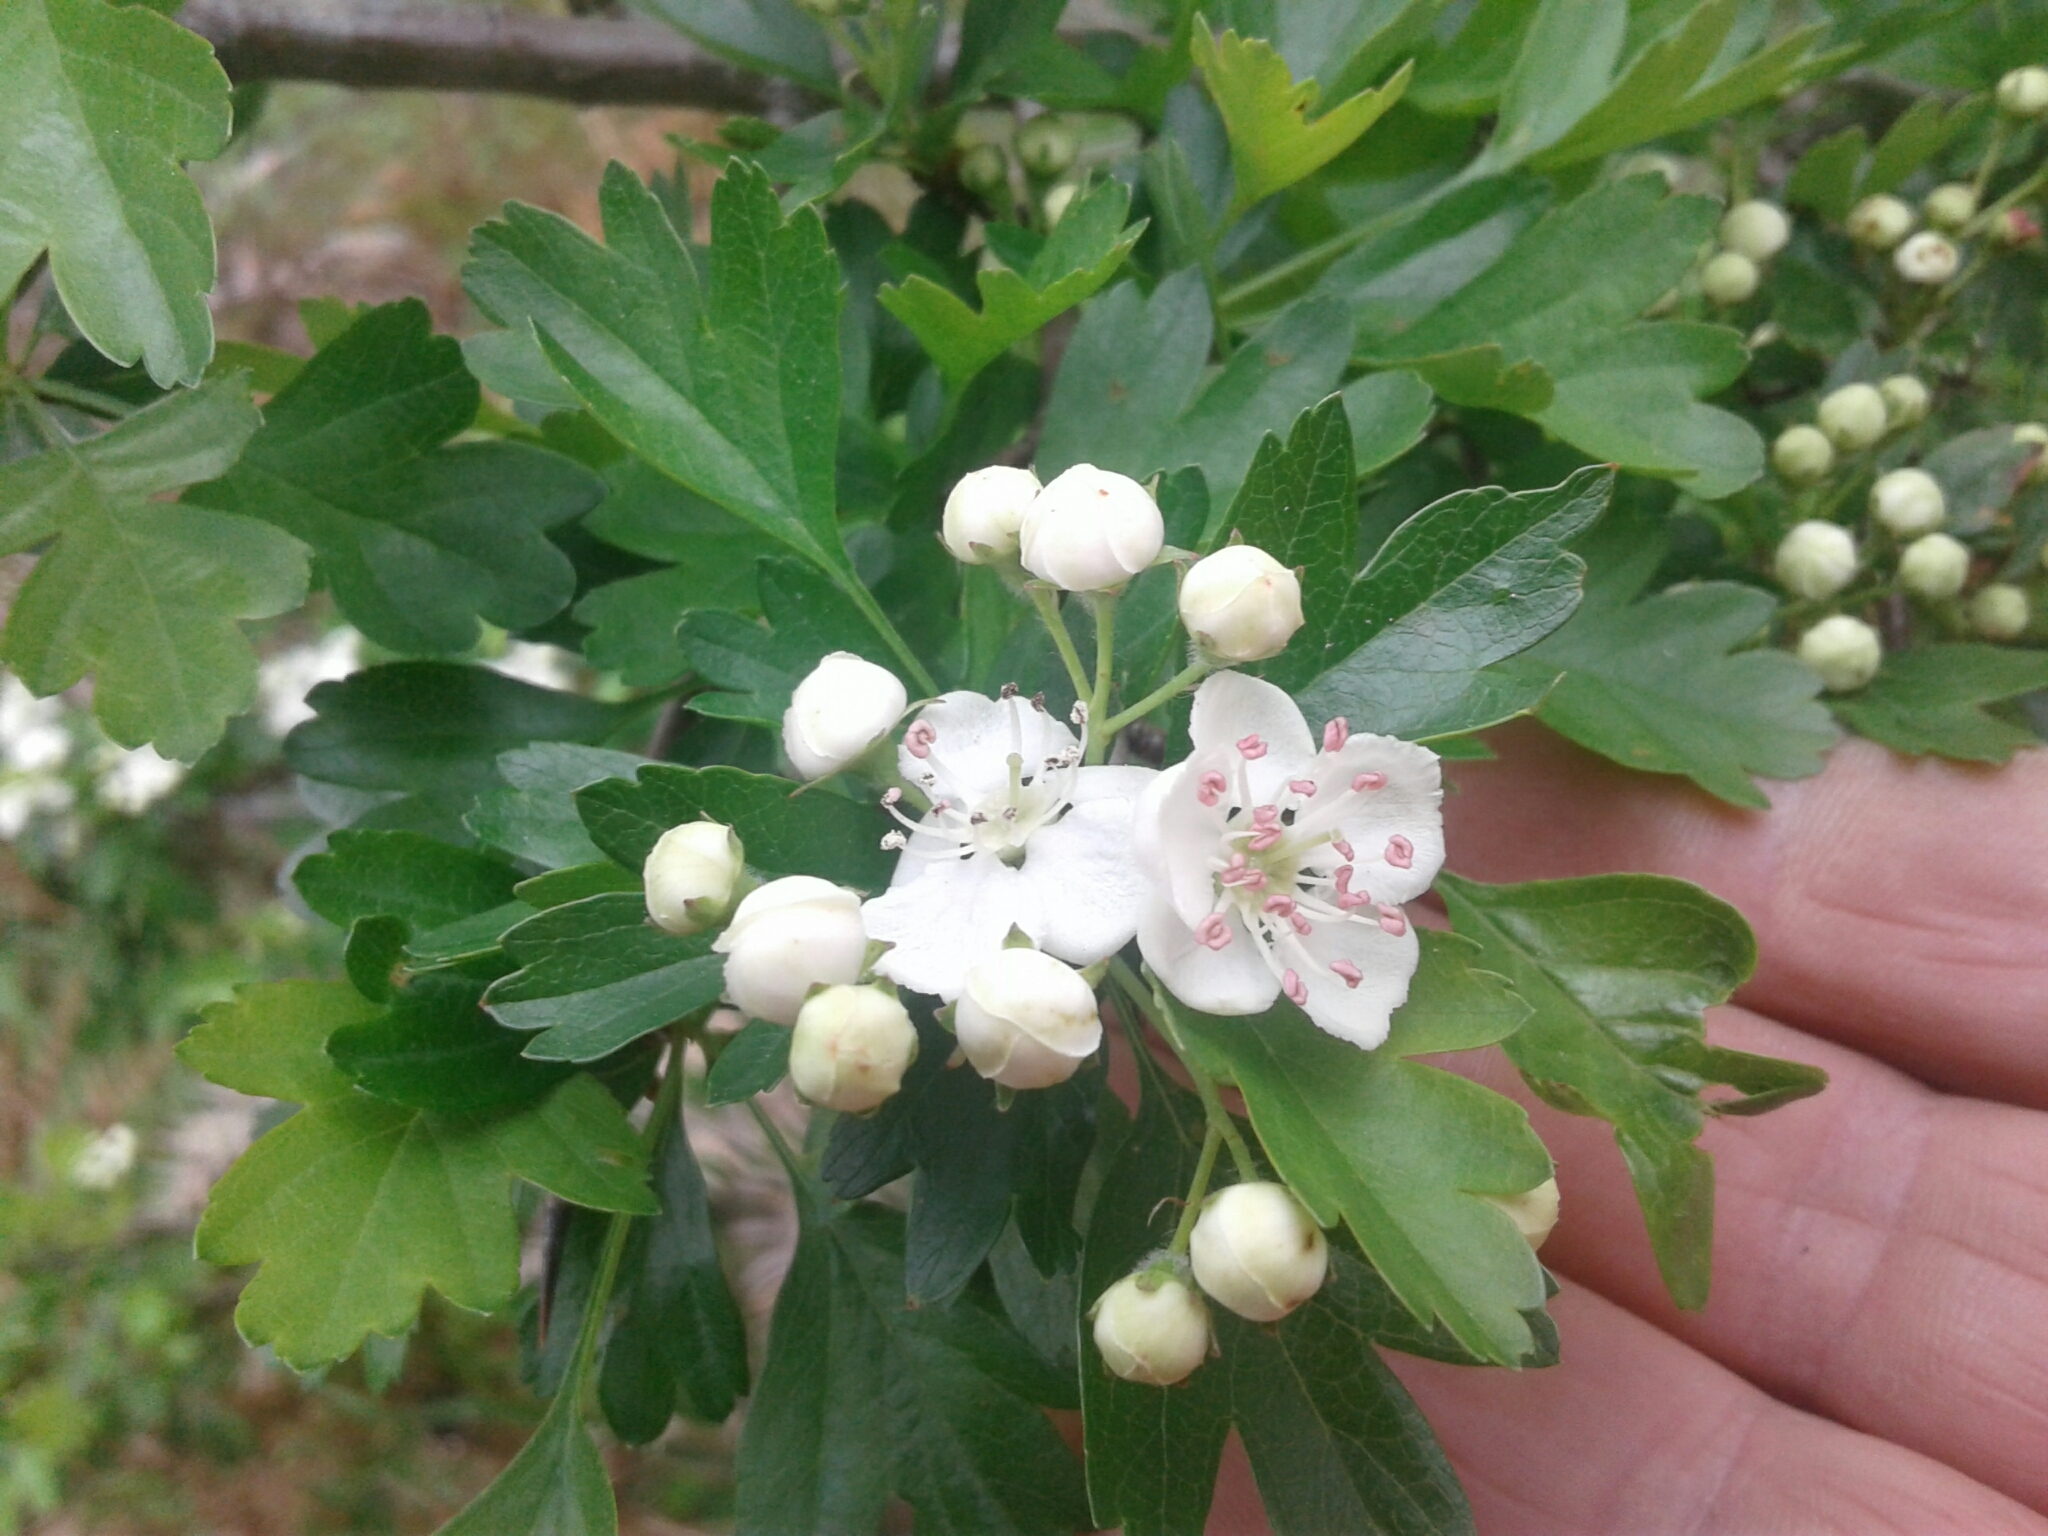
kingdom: Plantae
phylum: Tracheophyta
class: Magnoliopsida
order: Rosales
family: Rosaceae
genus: Crataegus
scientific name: Crataegus monogyna
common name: Hawthorn
